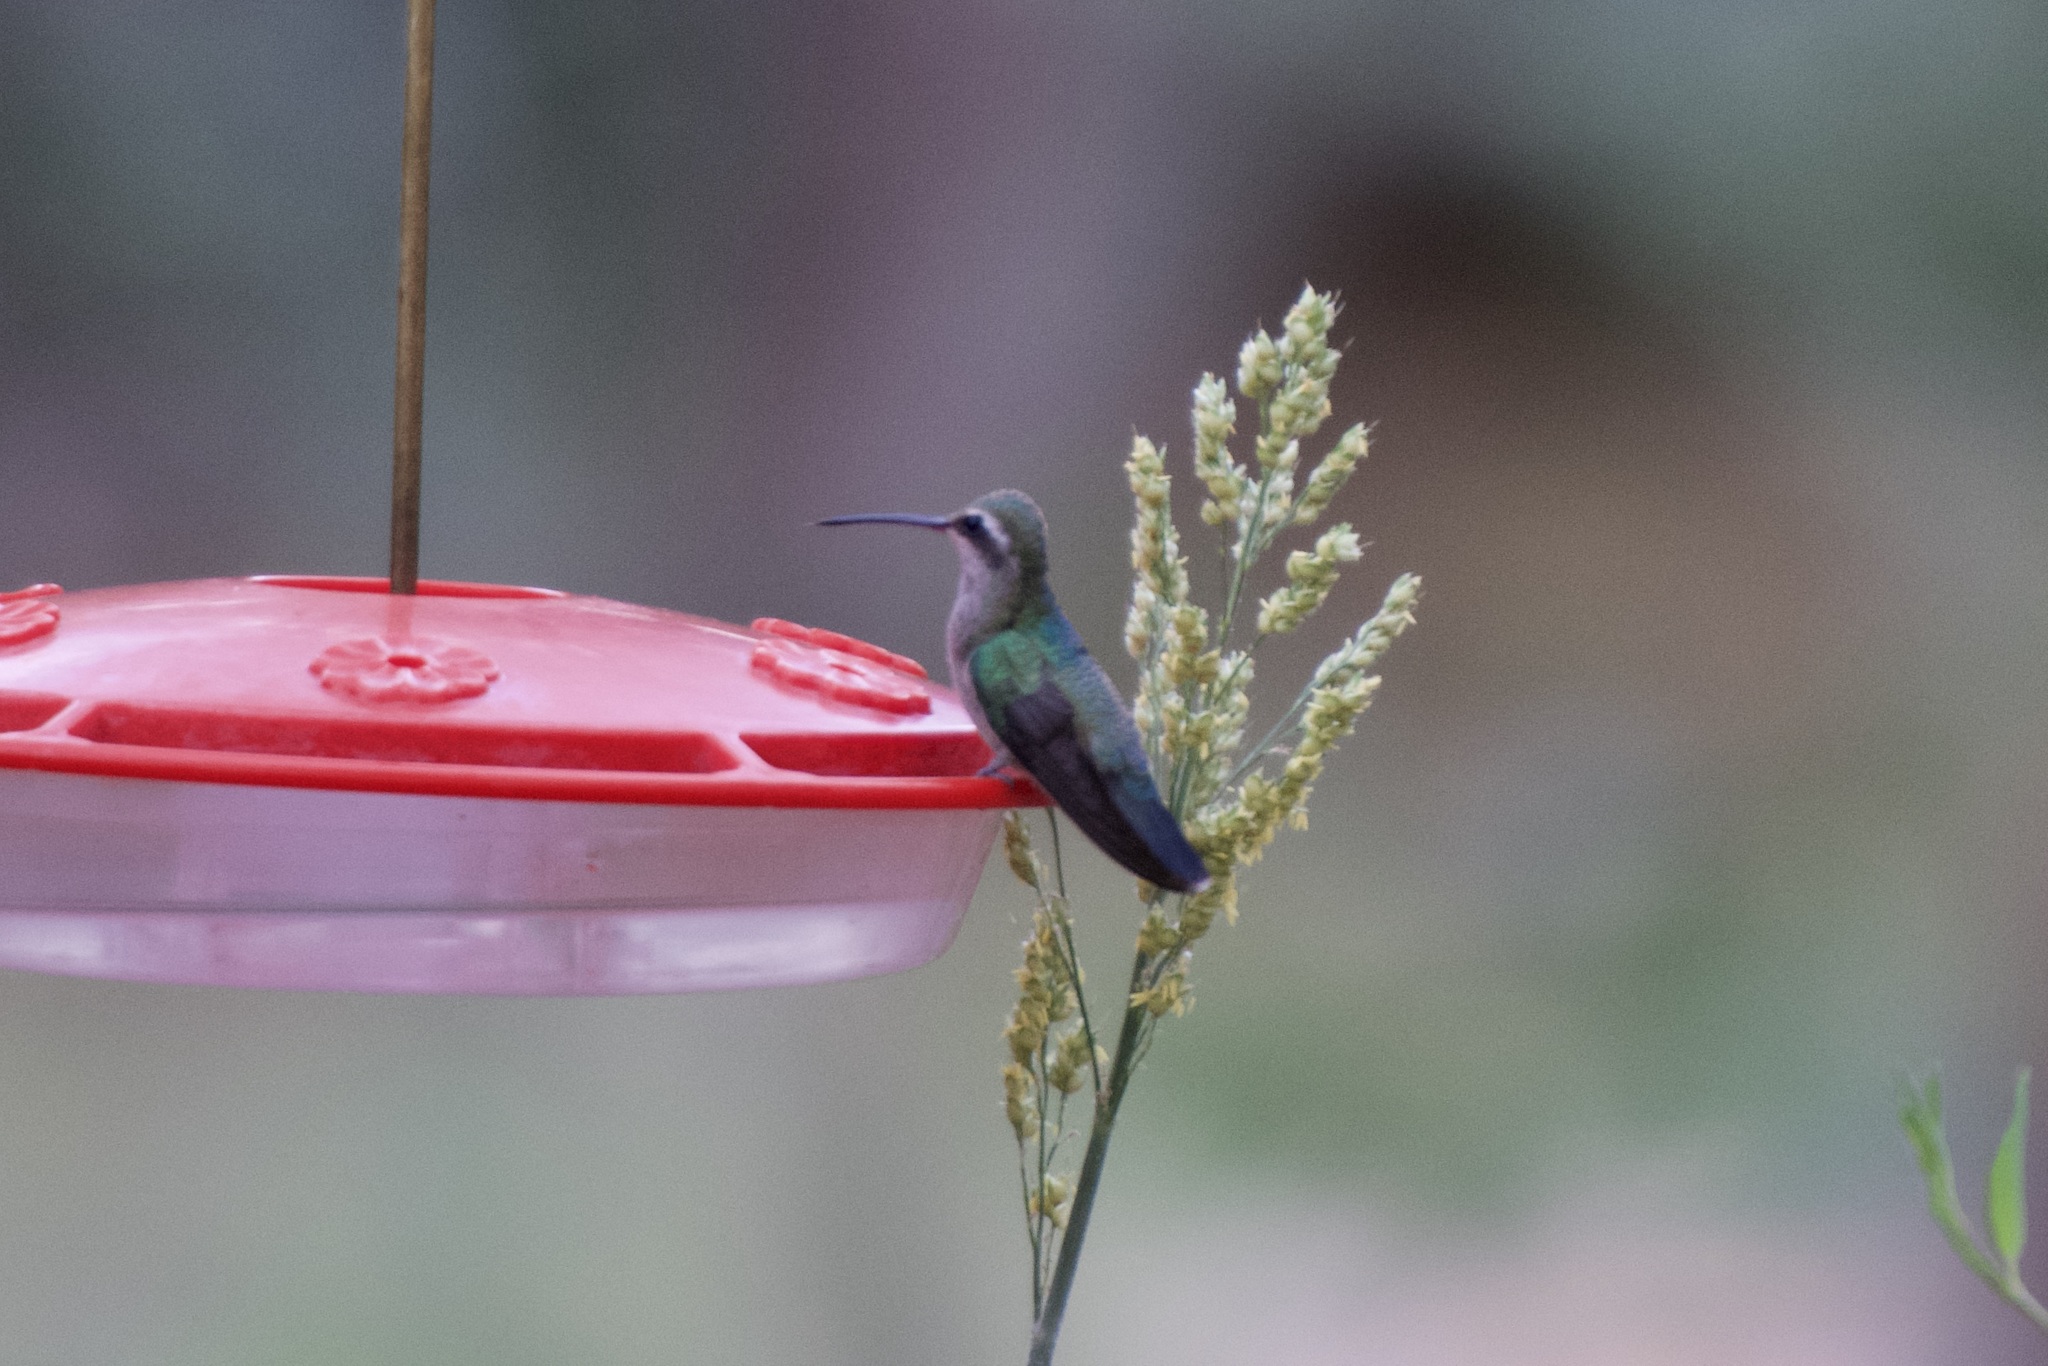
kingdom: Animalia
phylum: Chordata
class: Aves
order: Apodiformes
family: Trochilidae
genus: Cynanthus
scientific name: Cynanthus latirostris
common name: Broad-billed hummingbird
